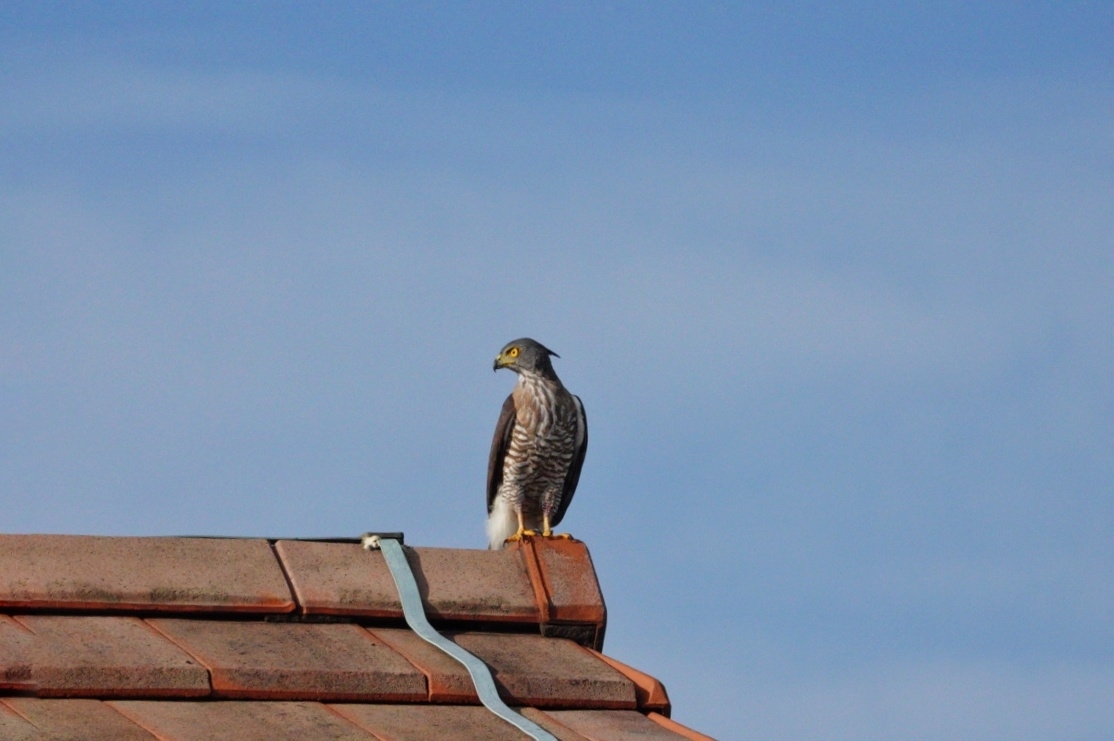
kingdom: Animalia
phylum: Chordata
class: Aves
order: Accipitriformes
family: Accipitridae
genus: Accipiter
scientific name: Accipiter trivirgatus
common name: Crested goshawk
